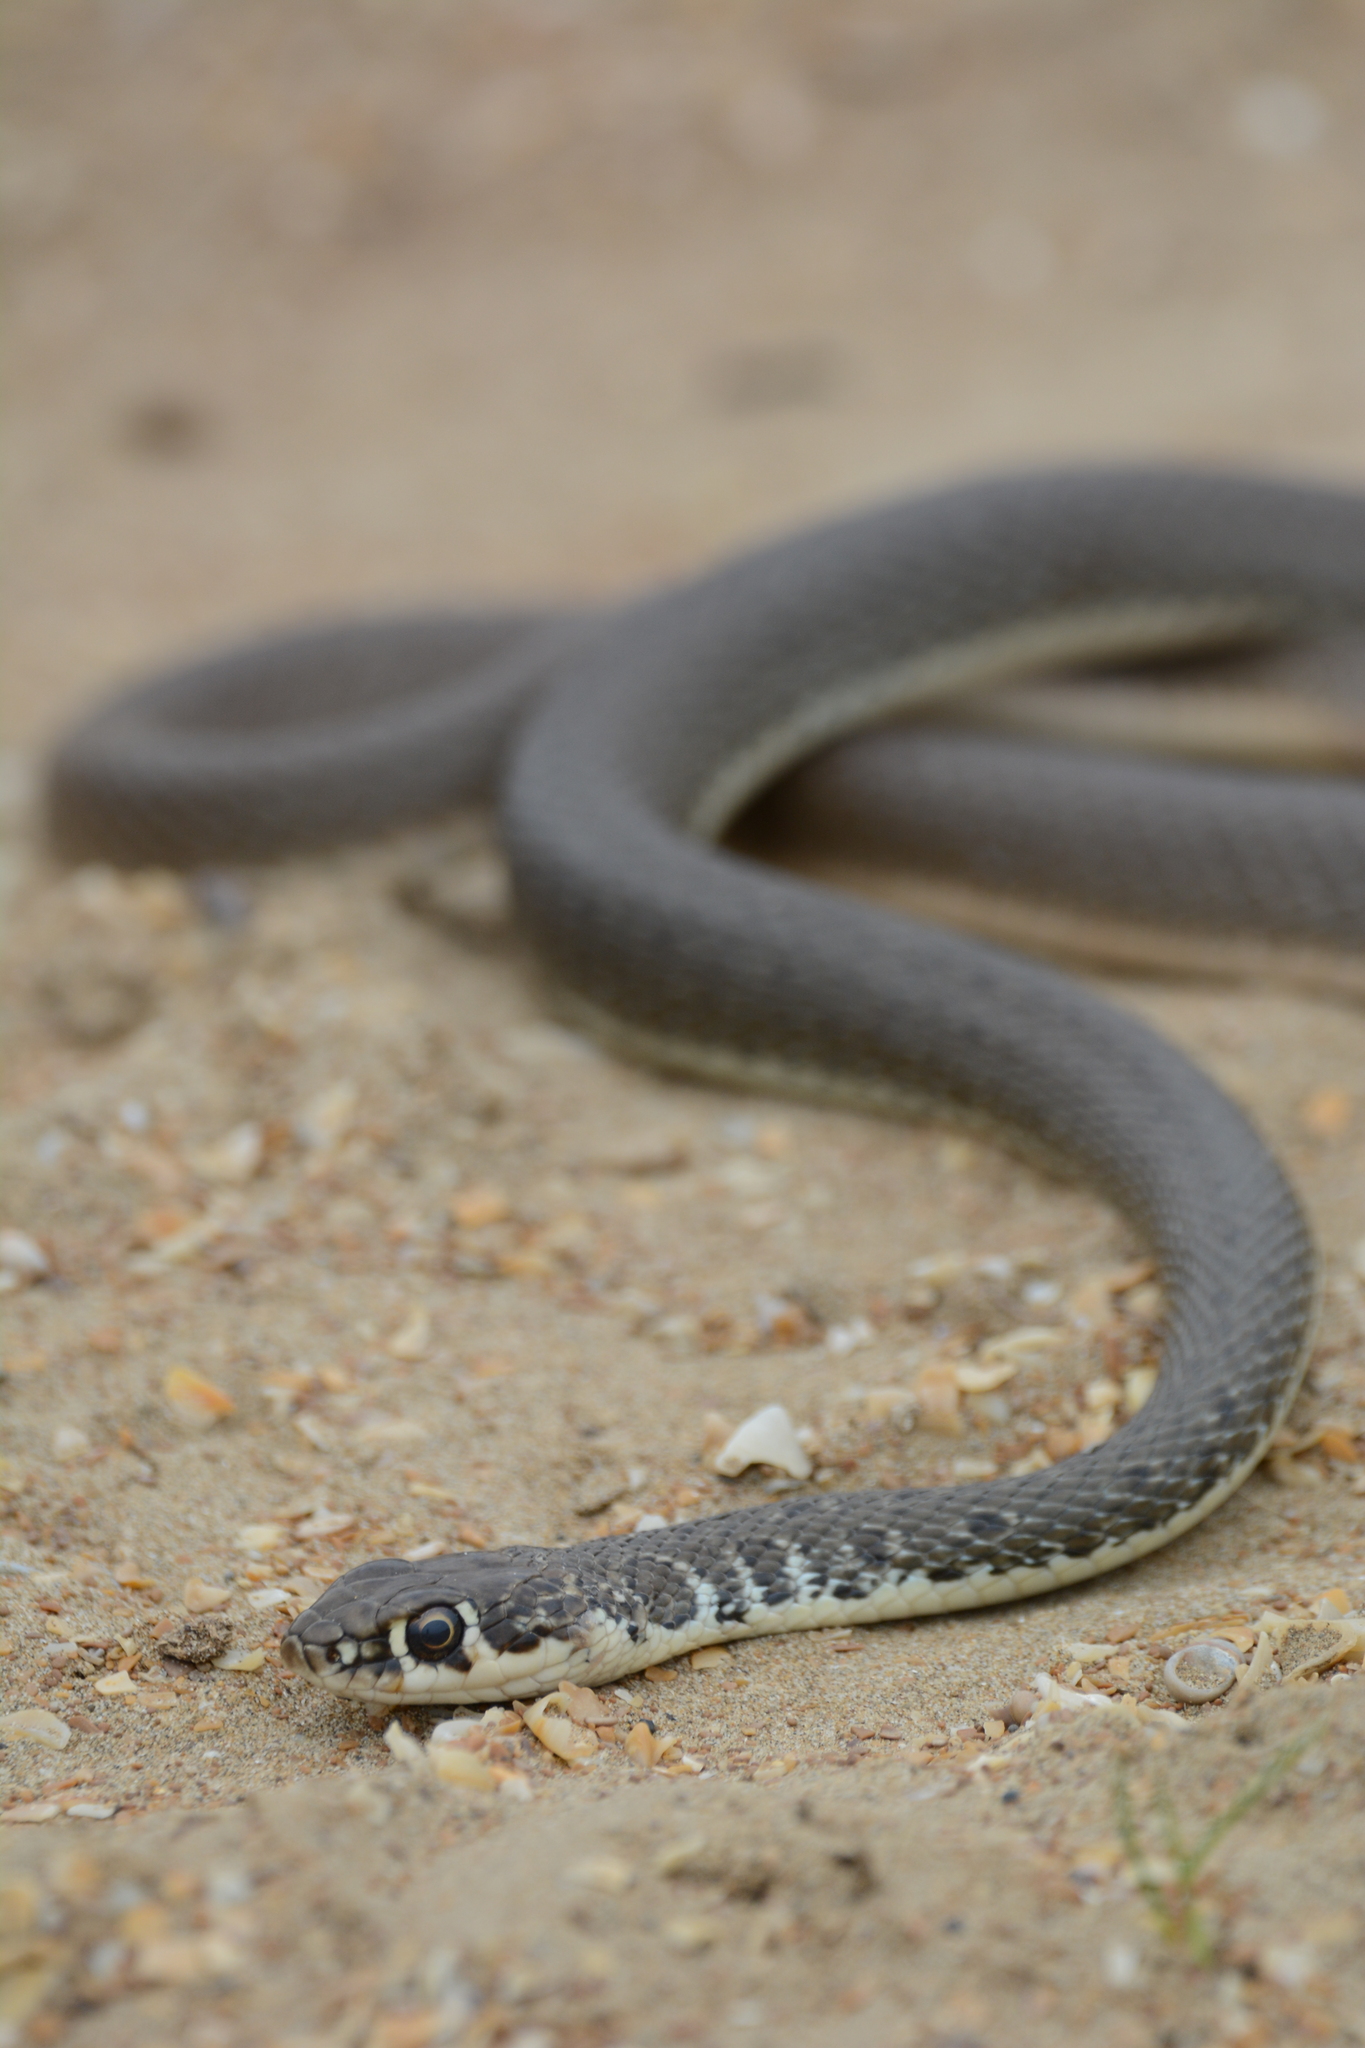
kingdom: Animalia
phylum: Chordata
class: Squamata
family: Colubridae
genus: Platyceps
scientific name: Platyceps najadum
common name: Dahl's whip snake
